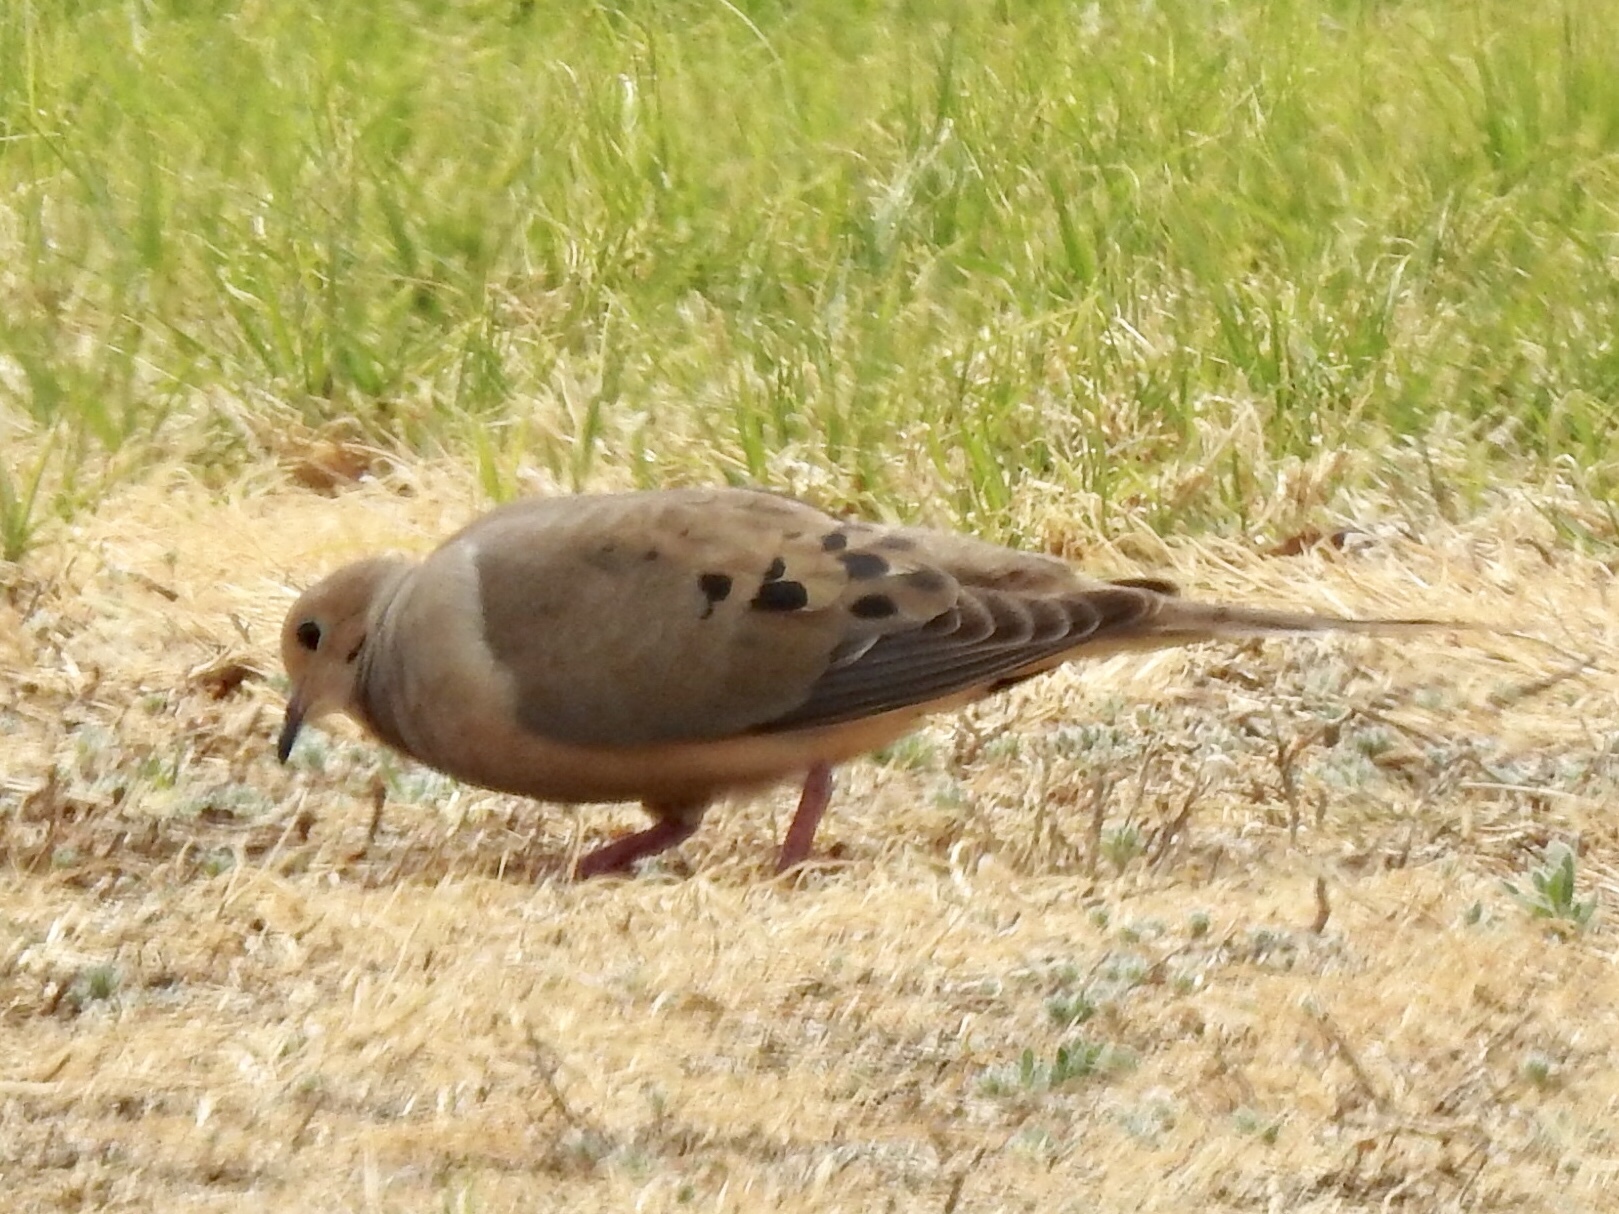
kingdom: Animalia
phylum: Chordata
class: Aves
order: Columbiformes
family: Columbidae
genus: Zenaida
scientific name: Zenaida macroura
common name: Mourning dove
